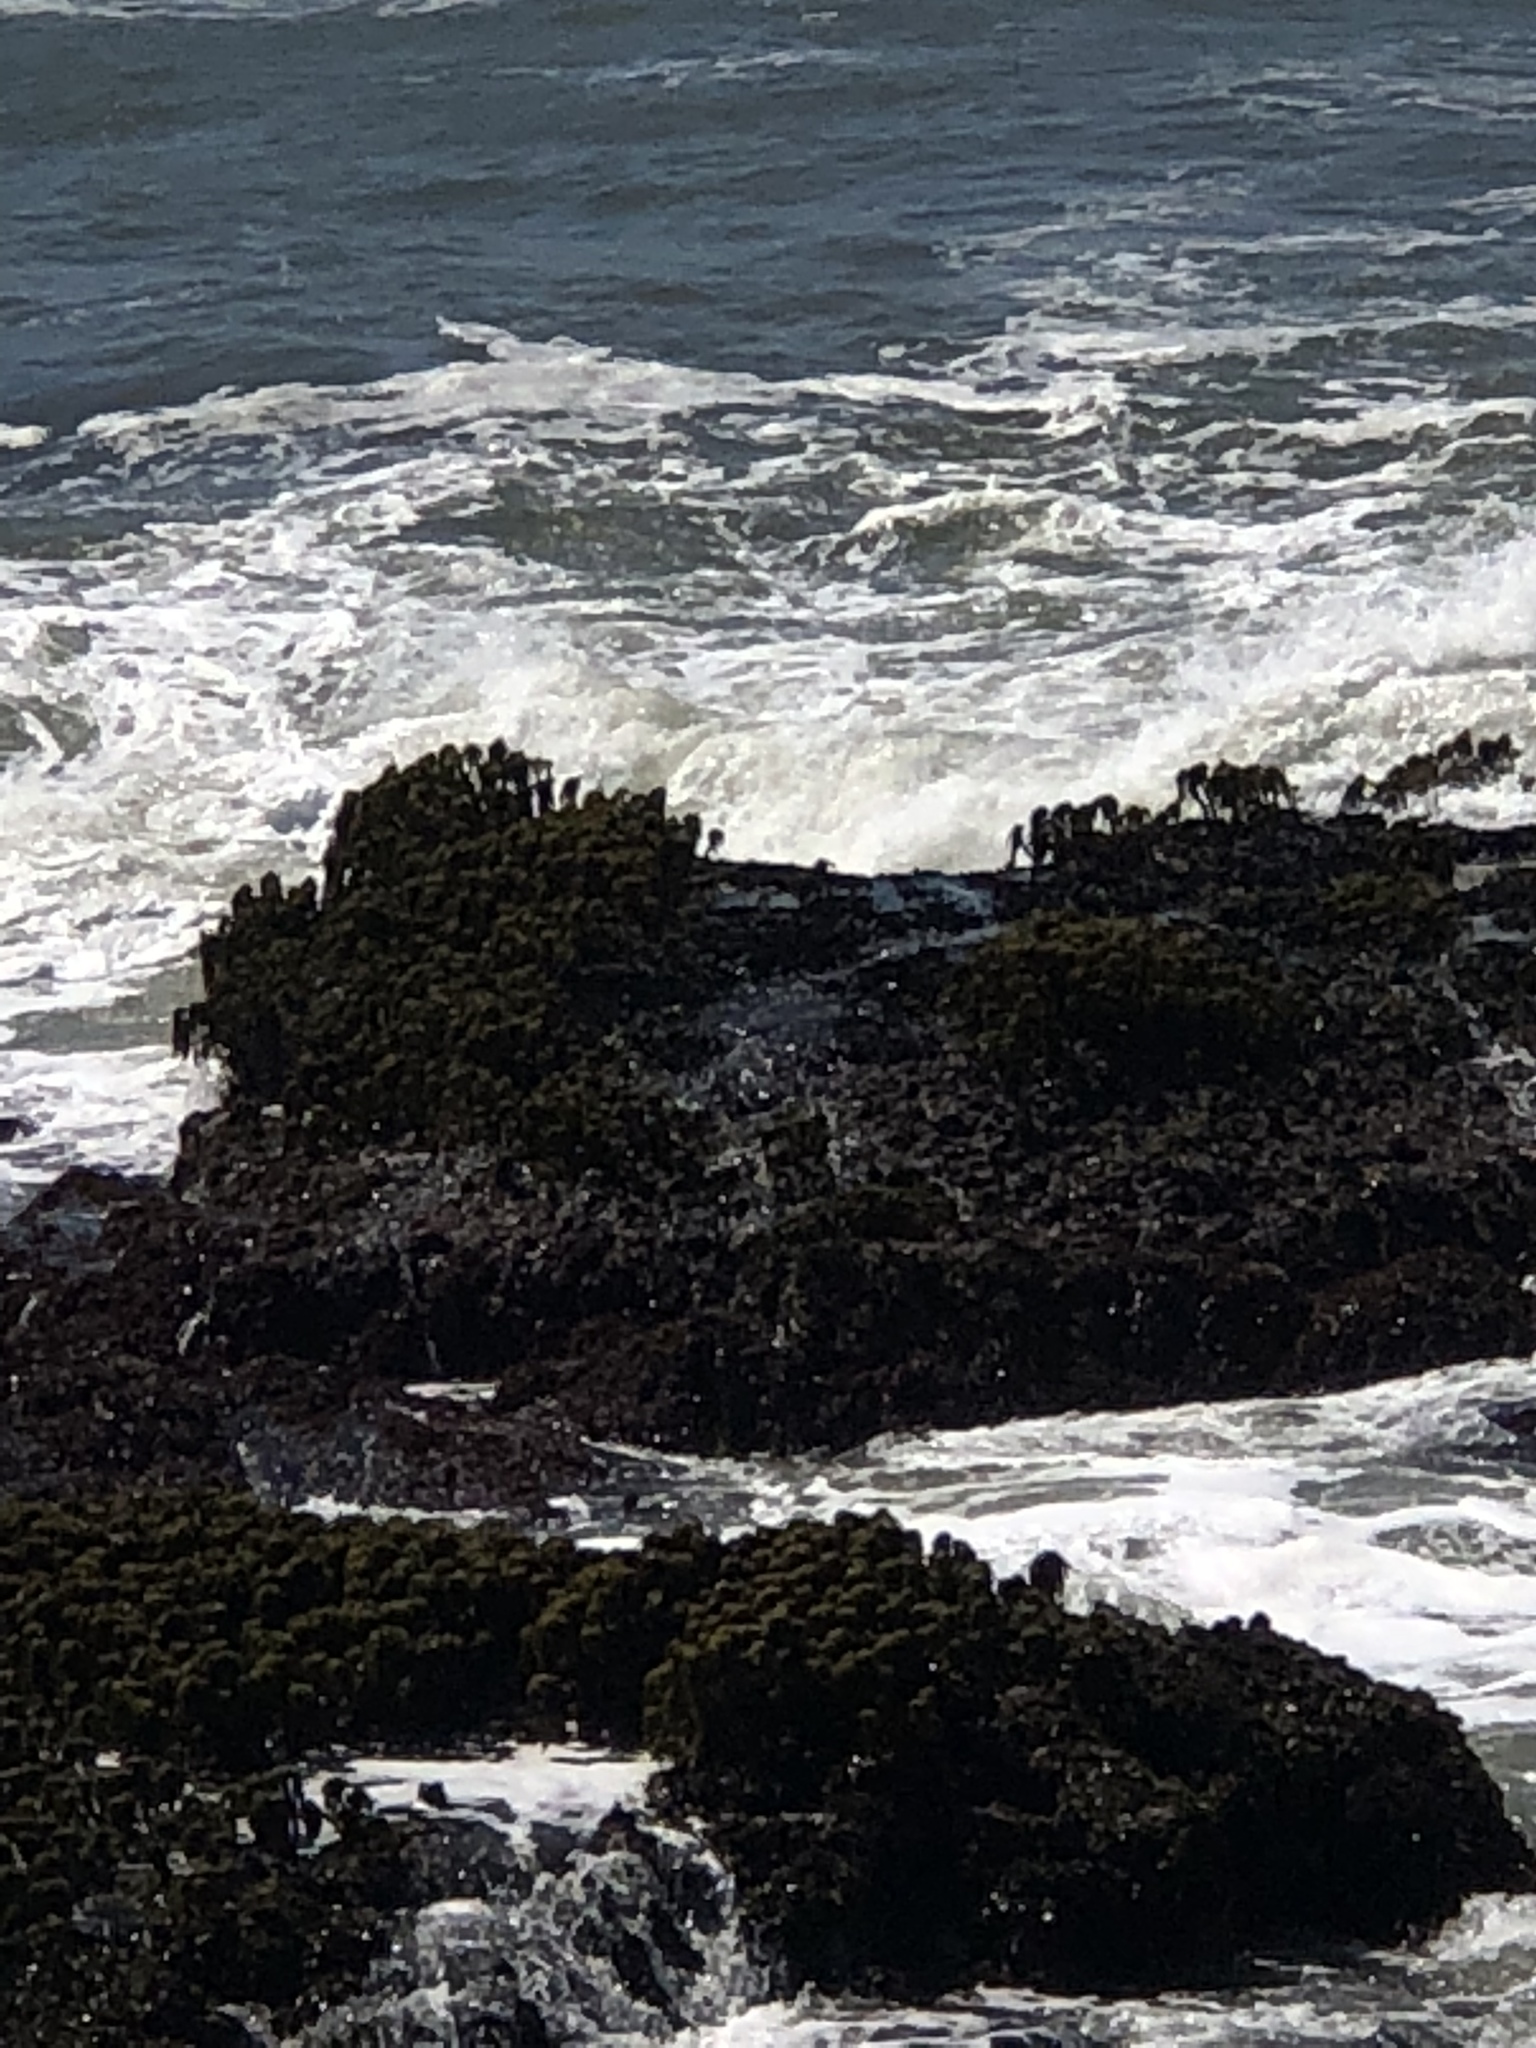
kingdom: Chromista
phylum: Ochrophyta
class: Phaeophyceae
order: Laminariales
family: Laminariaceae
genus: Postelsia
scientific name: Postelsia palmiformis
